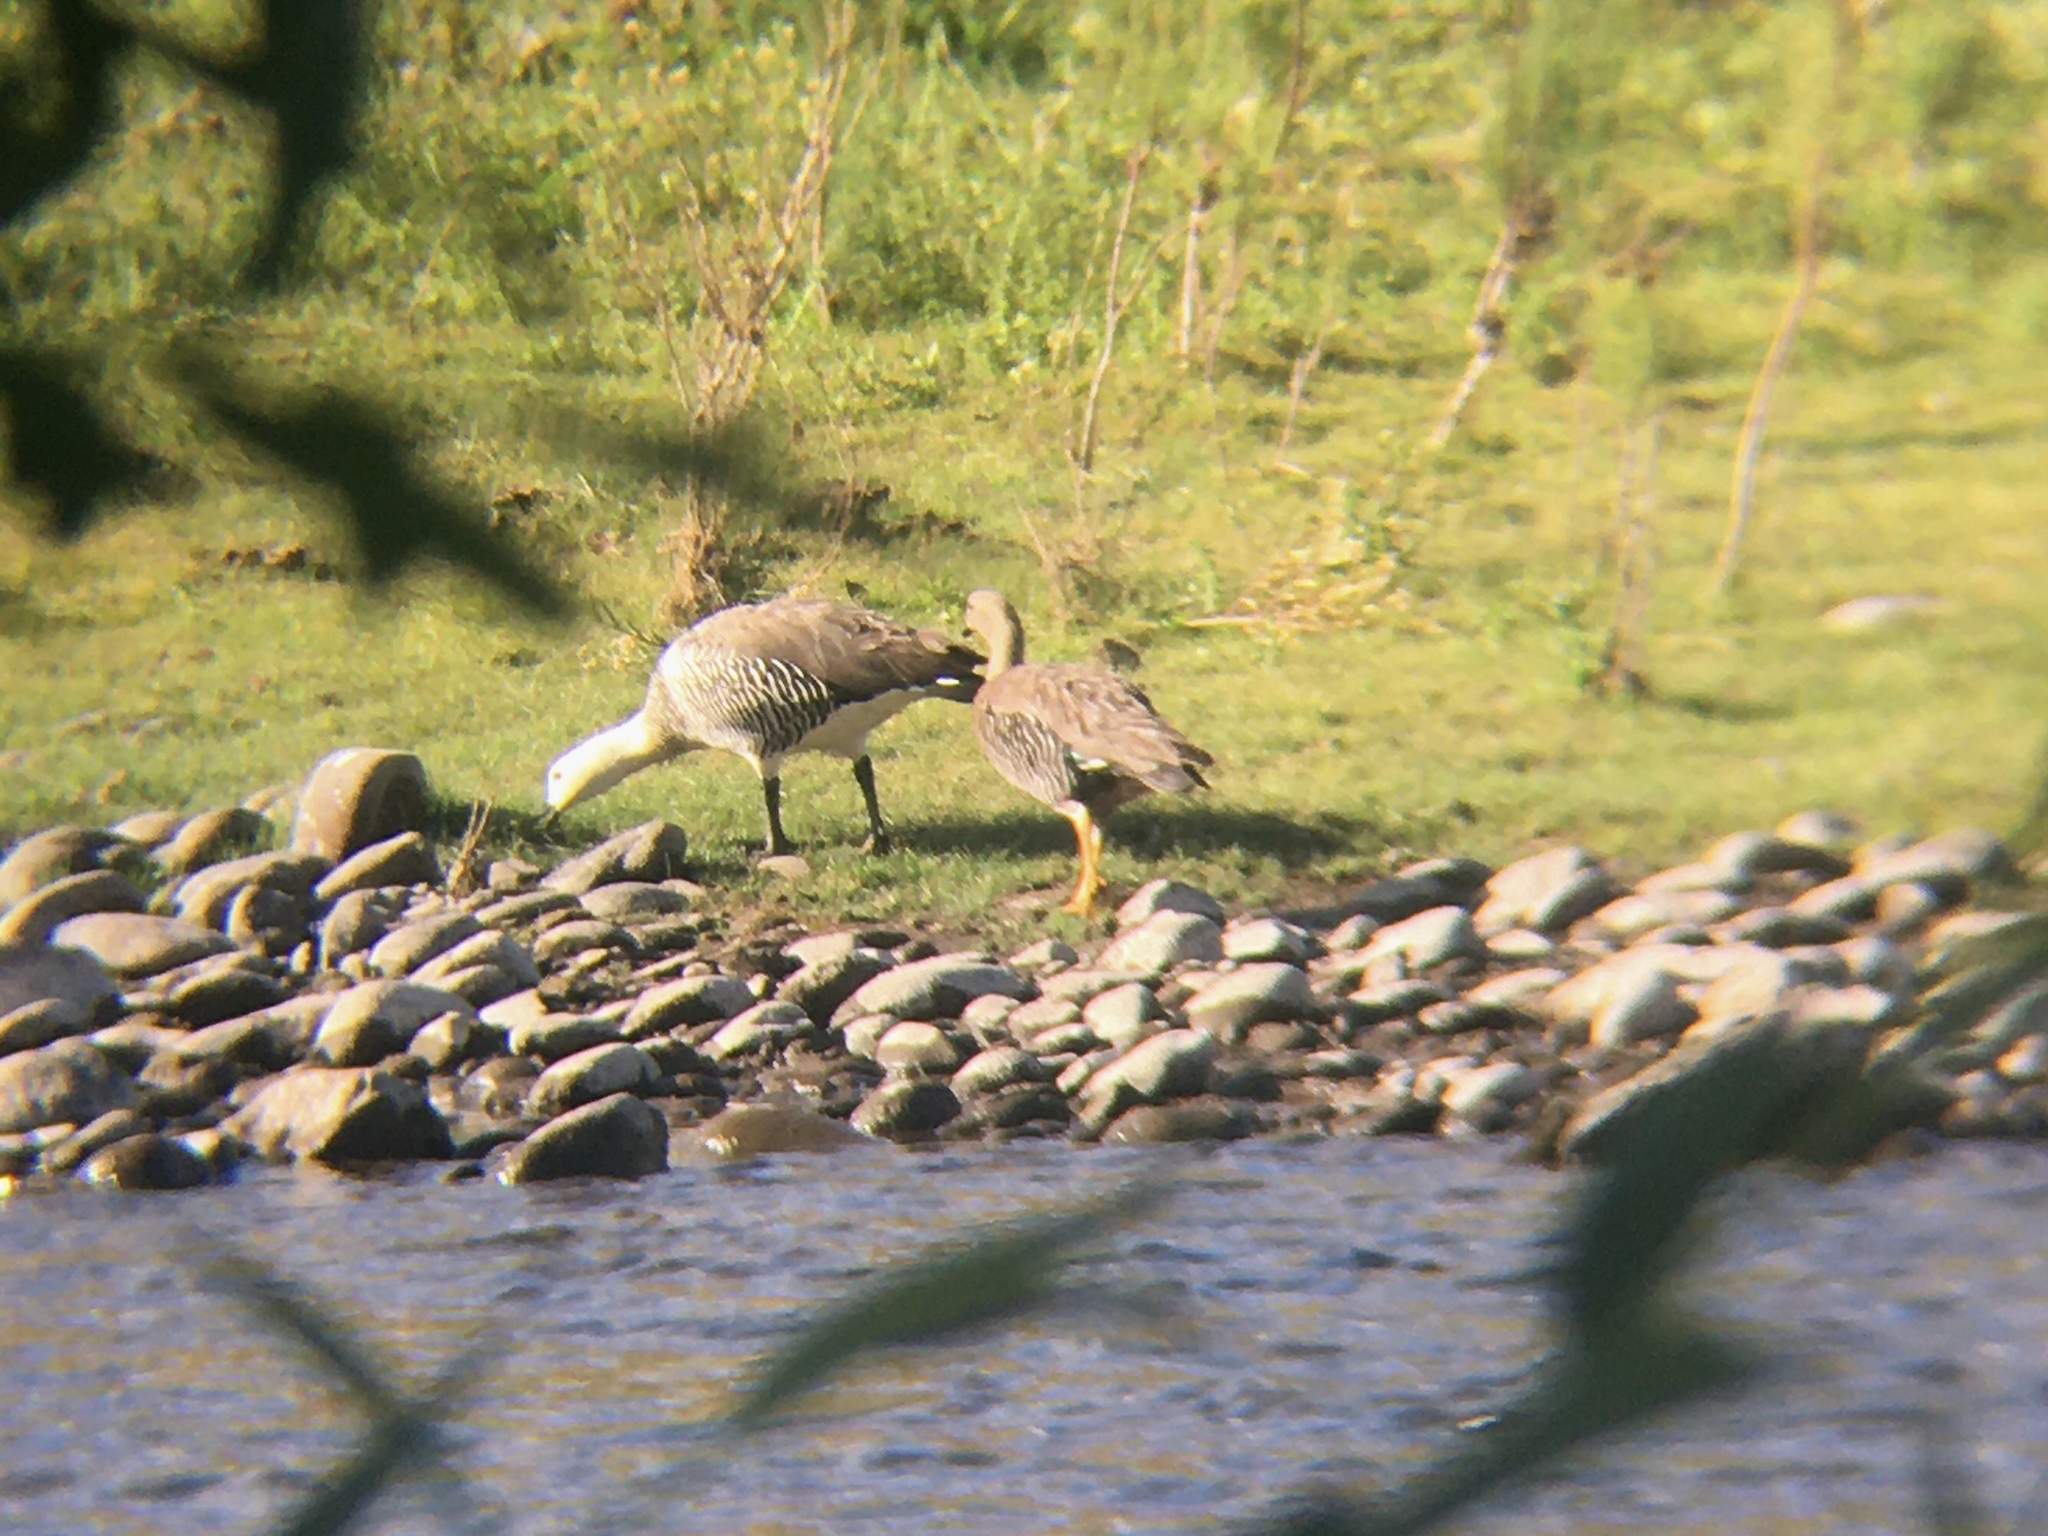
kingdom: Animalia
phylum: Chordata
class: Aves
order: Anseriformes
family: Anatidae
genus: Chloephaga
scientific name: Chloephaga picta
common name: Upland goose
